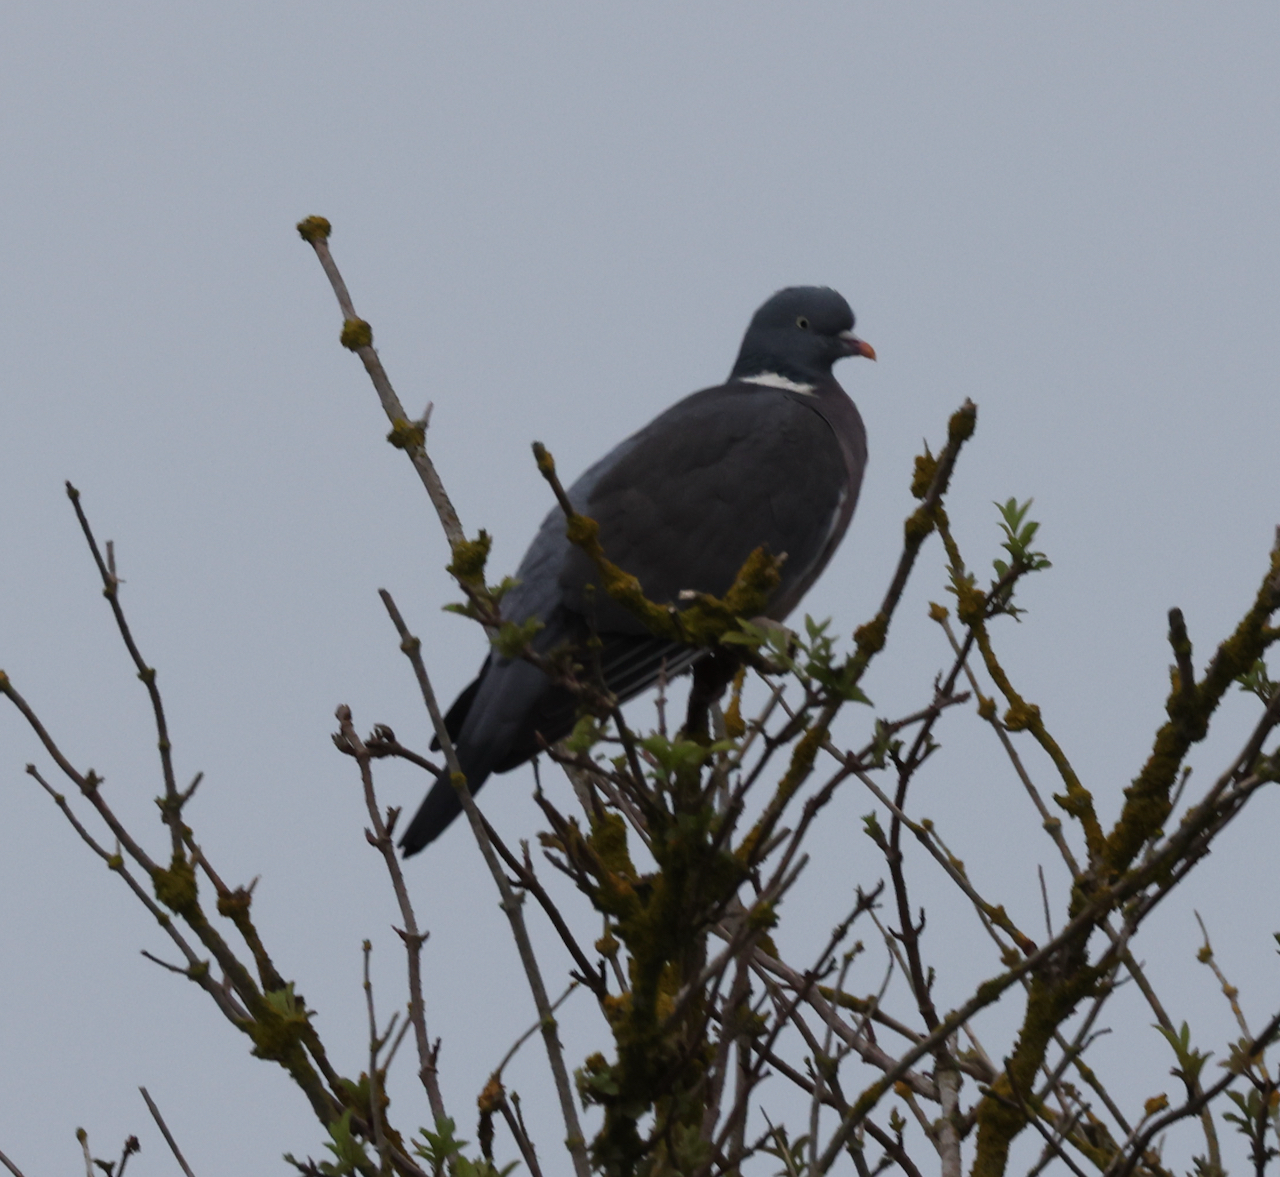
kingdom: Animalia
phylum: Chordata
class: Aves
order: Columbiformes
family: Columbidae
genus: Columba
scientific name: Columba palumbus
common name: Common wood pigeon
